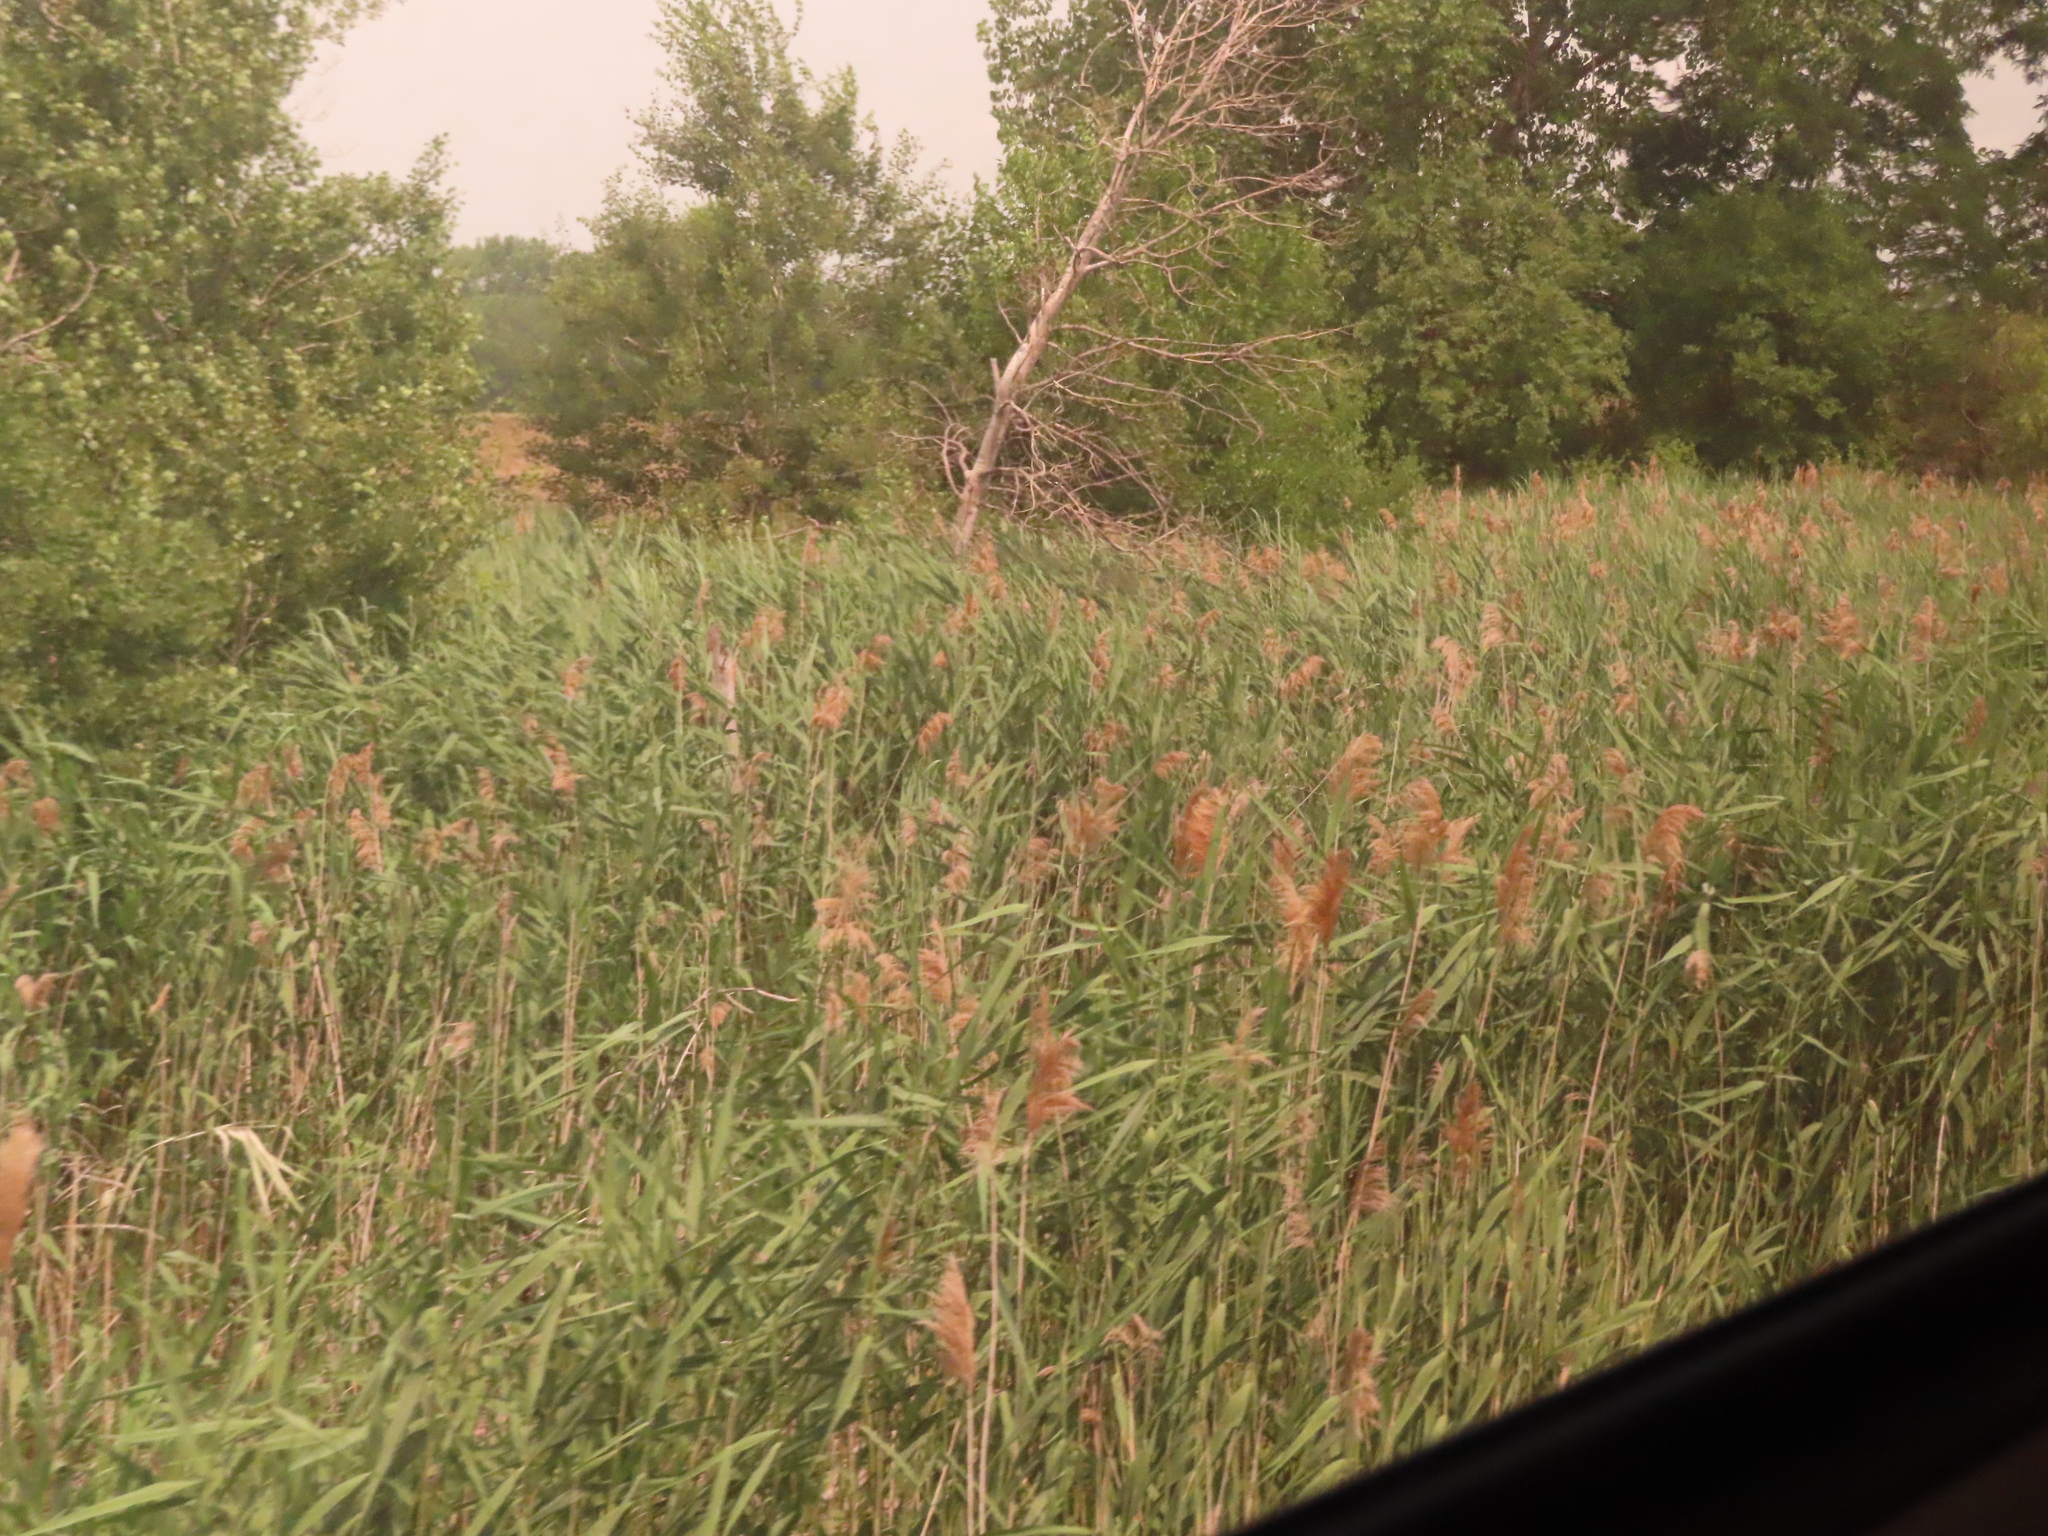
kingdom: Plantae
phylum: Tracheophyta
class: Liliopsida
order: Poales
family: Poaceae
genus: Phragmites
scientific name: Phragmites australis
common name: Common reed
